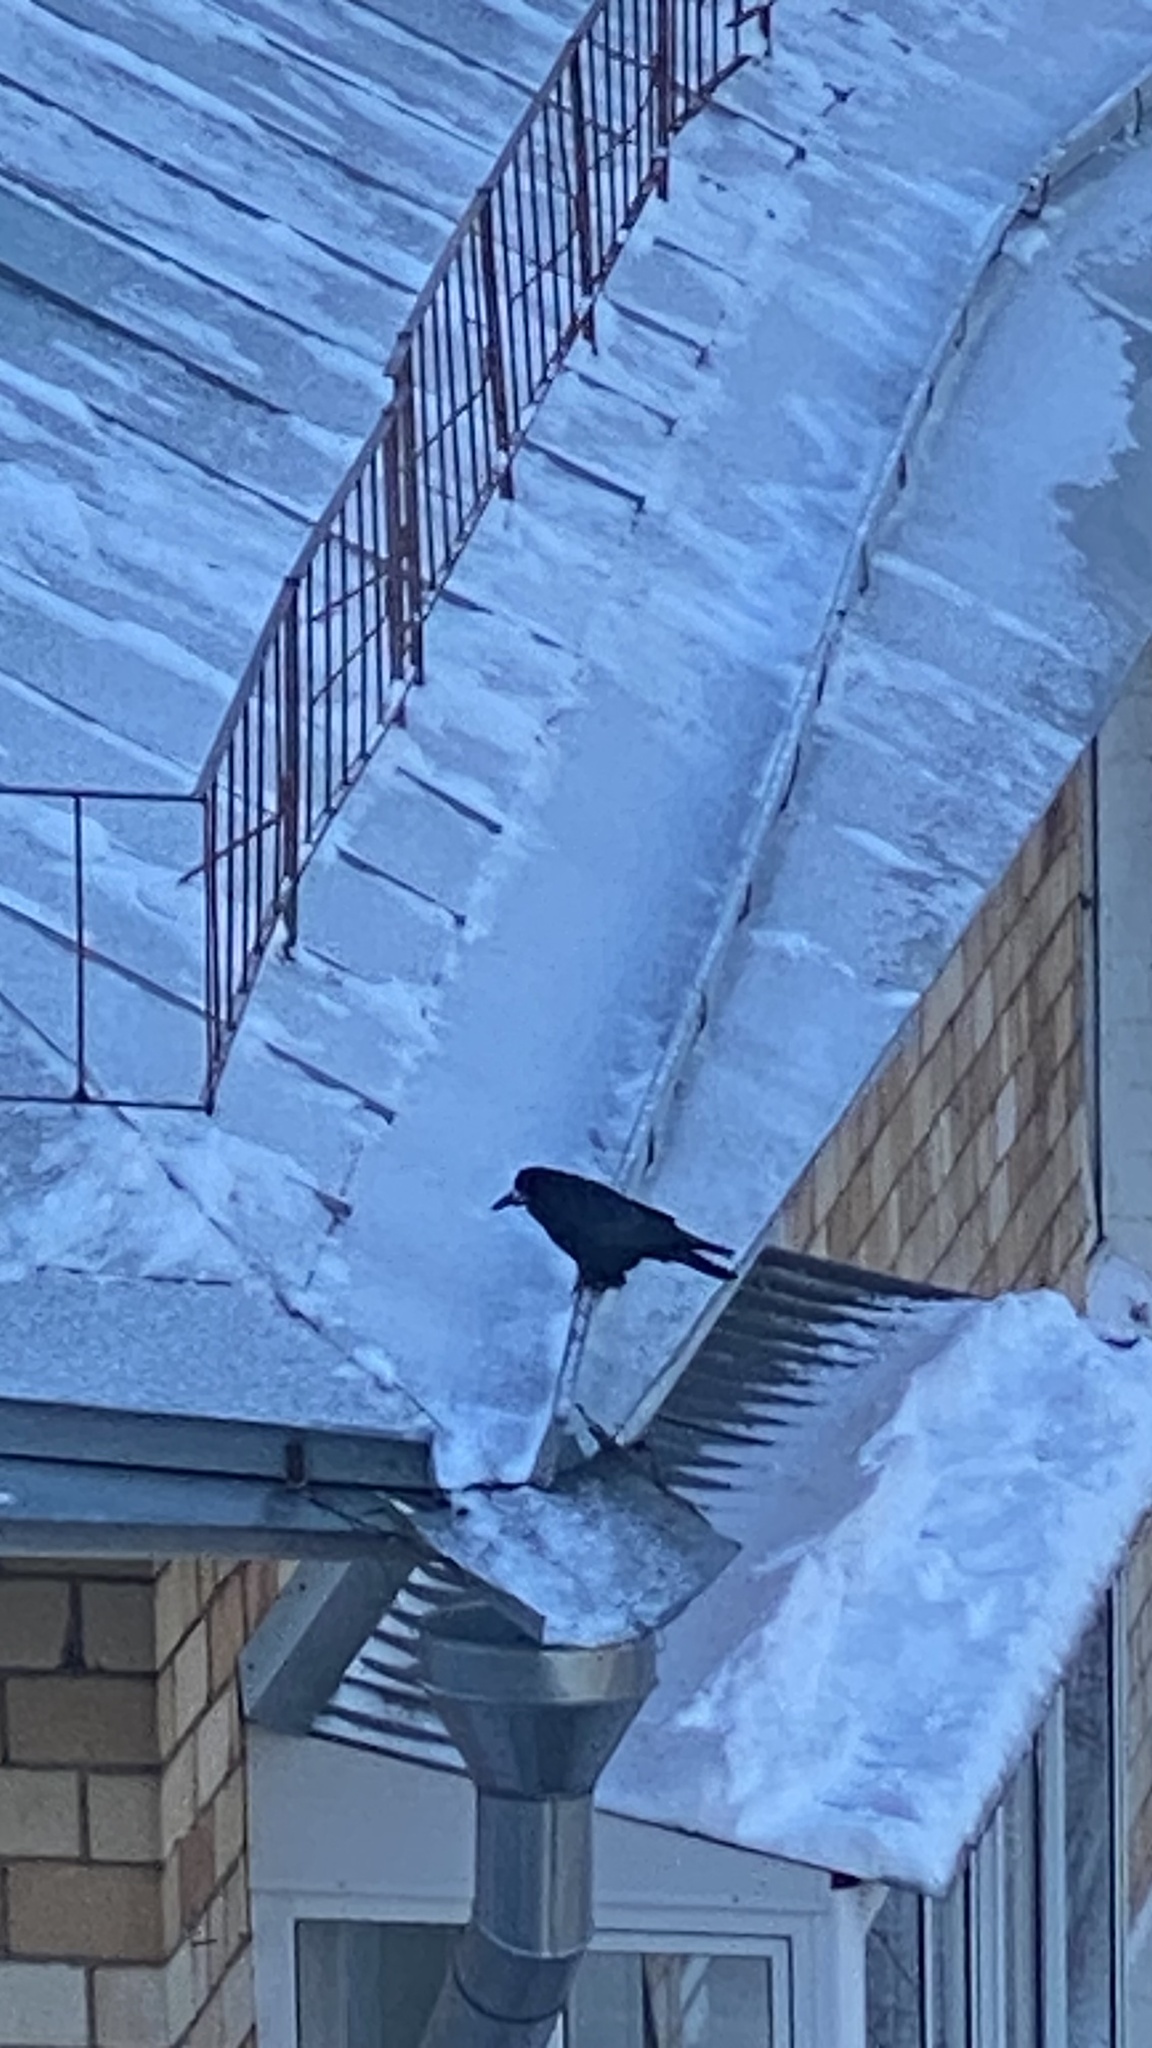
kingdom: Animalia
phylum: Chordata
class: Aves
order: Passeriformes
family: Corvidae
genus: Corvus
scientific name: Corvus frugilegus
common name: Rook
